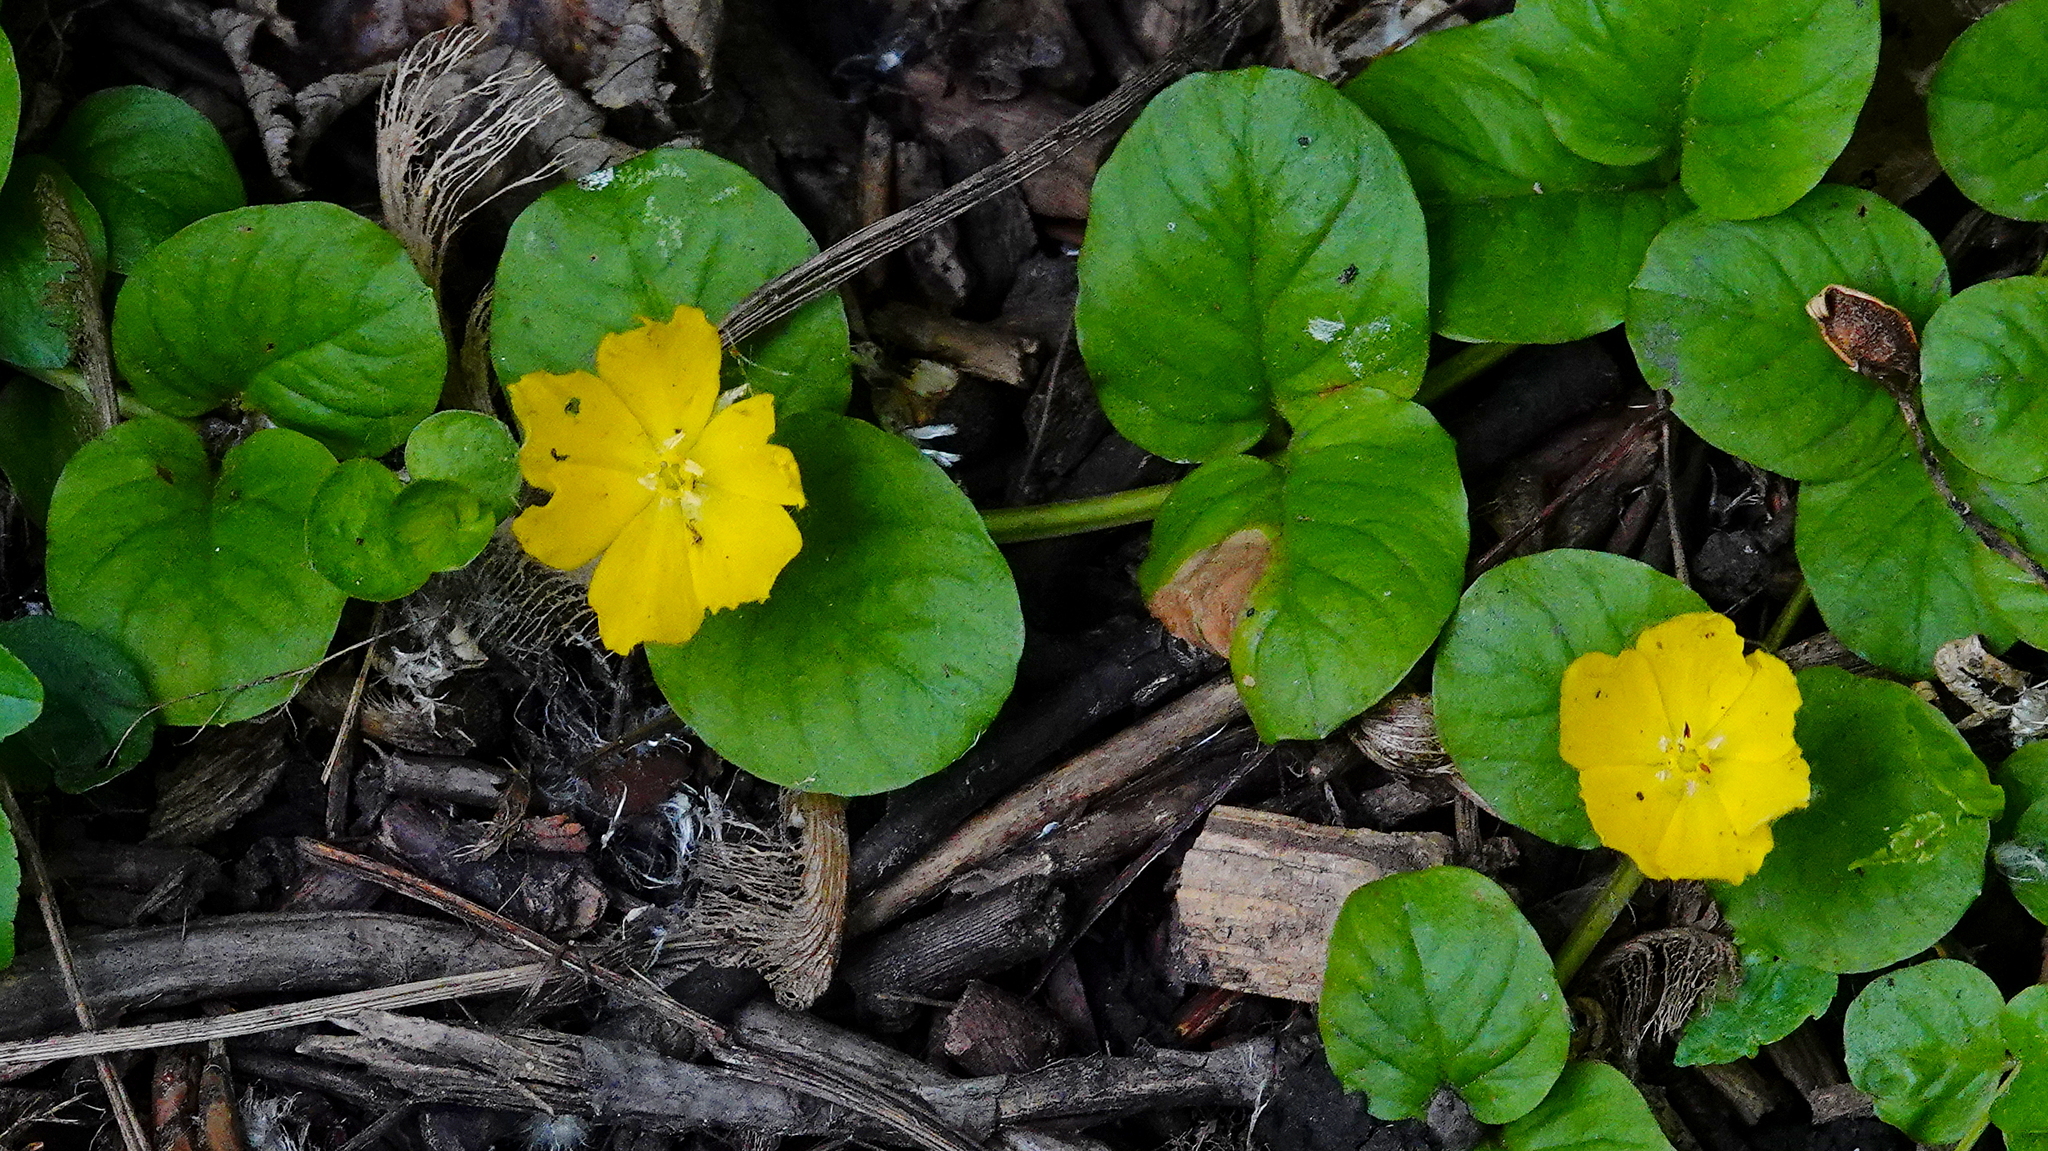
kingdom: Plantae
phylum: Tracheophyta
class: Magnoliopsida
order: Ericales
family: Primulaceae
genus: Lysimachia
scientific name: Lysimachia nummularia
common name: Moneywort
